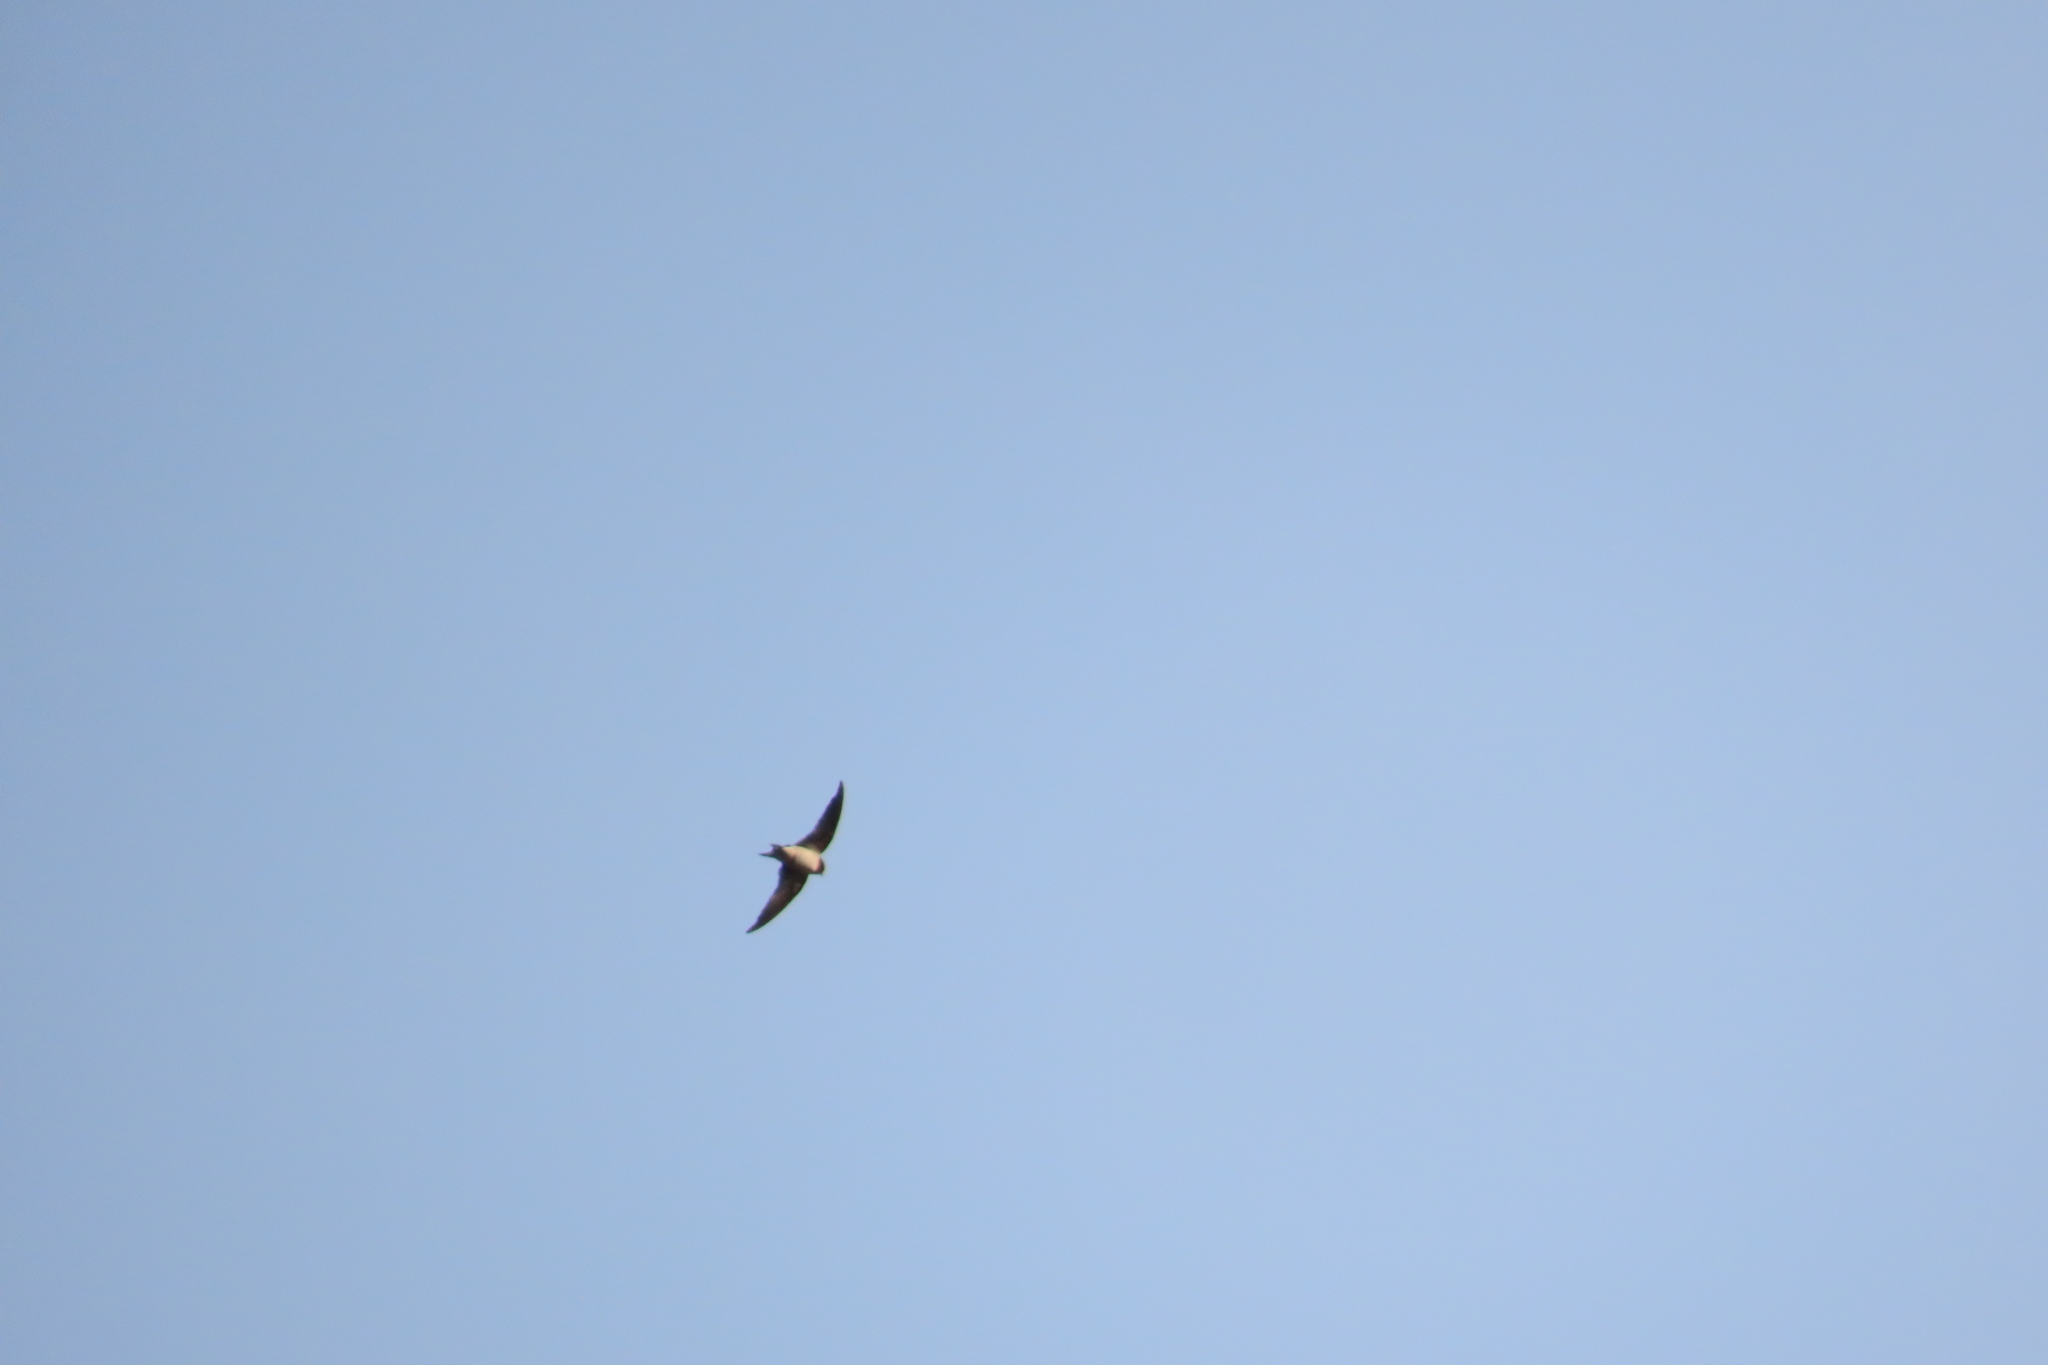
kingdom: Animalia
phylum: Chordata
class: Aves
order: Passeriformes
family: Hirundinidae
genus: Hirundo
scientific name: Hirundo rustica
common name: Barn swallow
